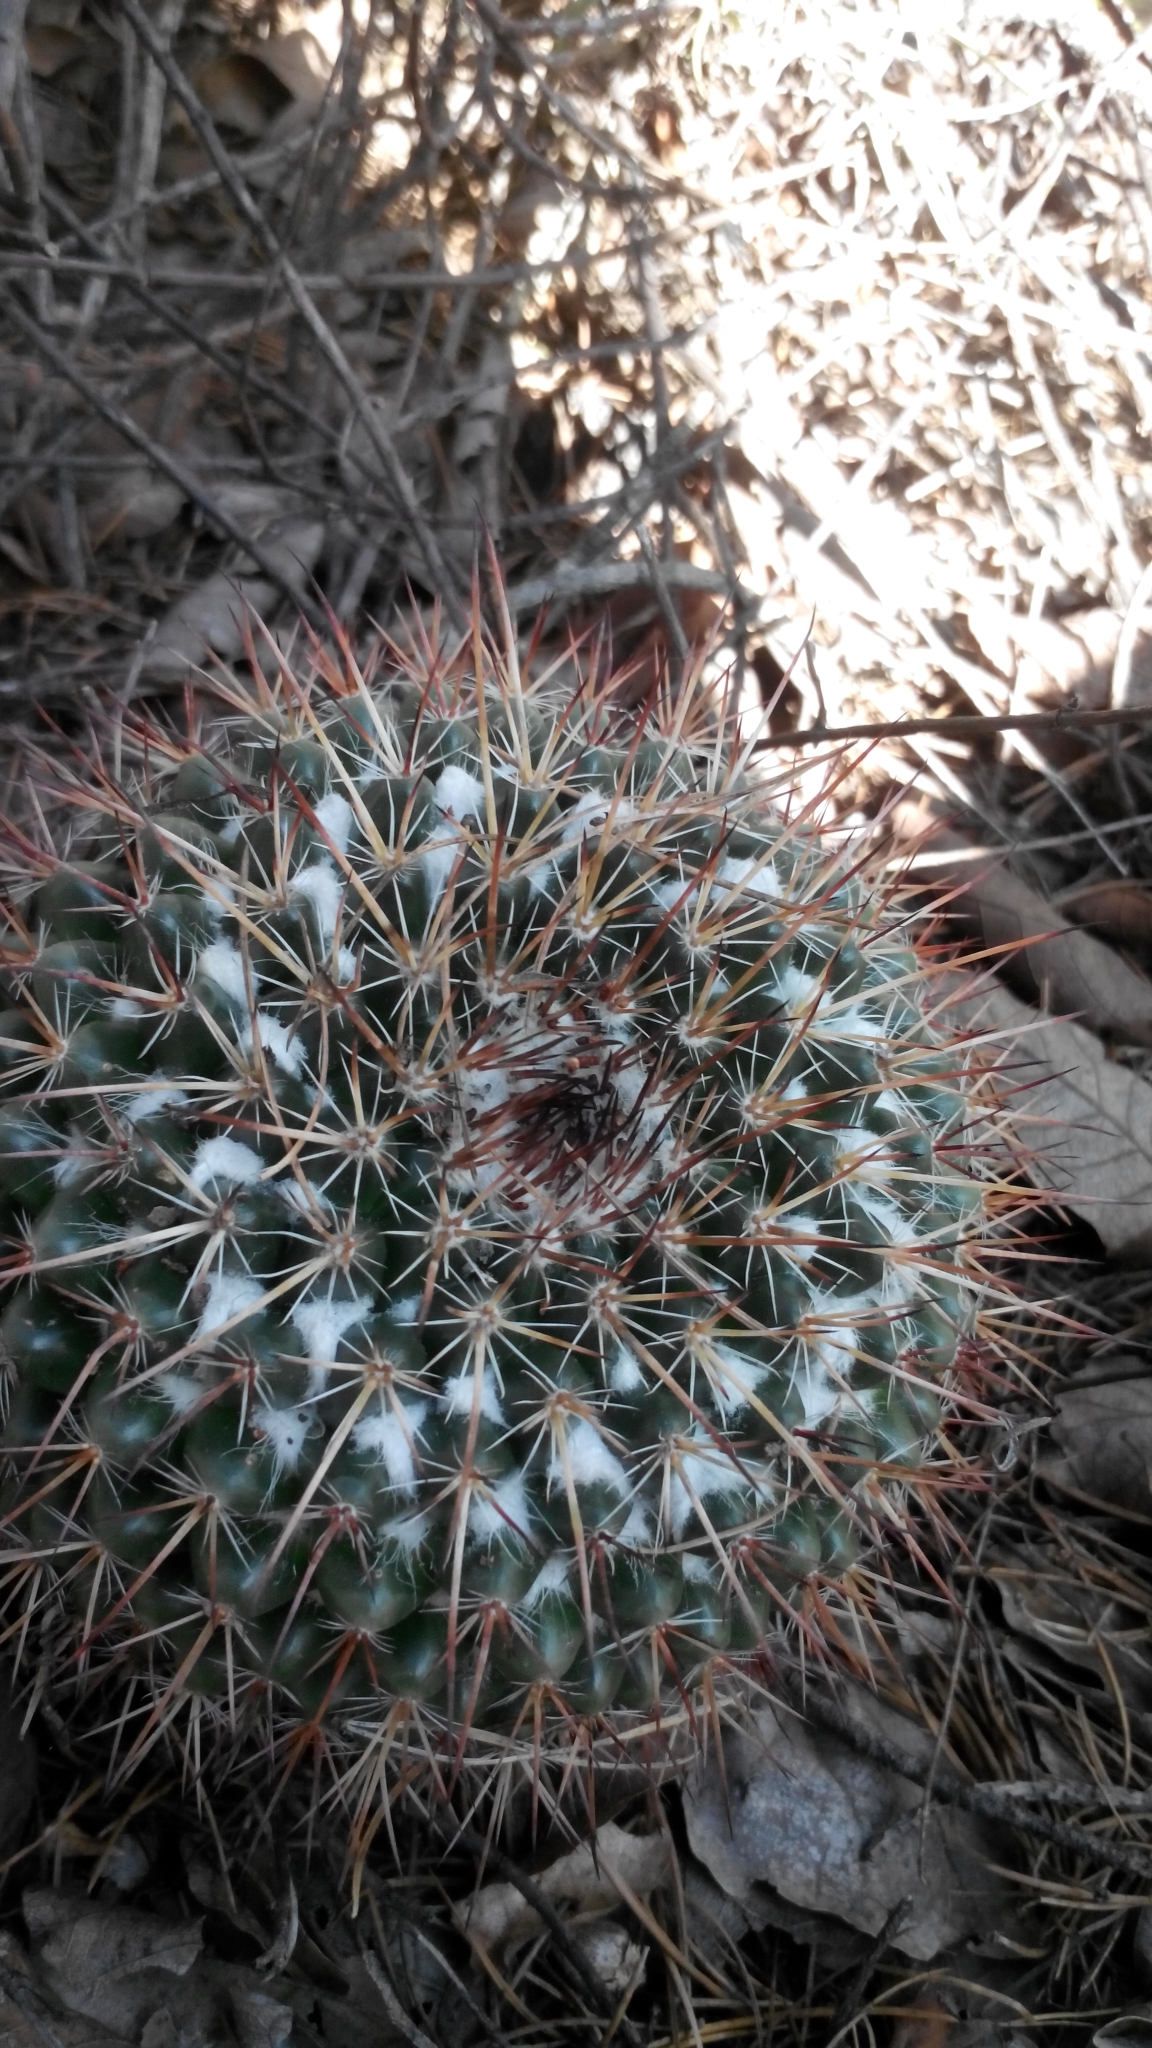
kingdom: Plantae
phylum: Tracheophyta
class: Magnoliopsida
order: Caryophyllales
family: Cactaceae
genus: Mammillaria
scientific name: Mammillaria gigantea
